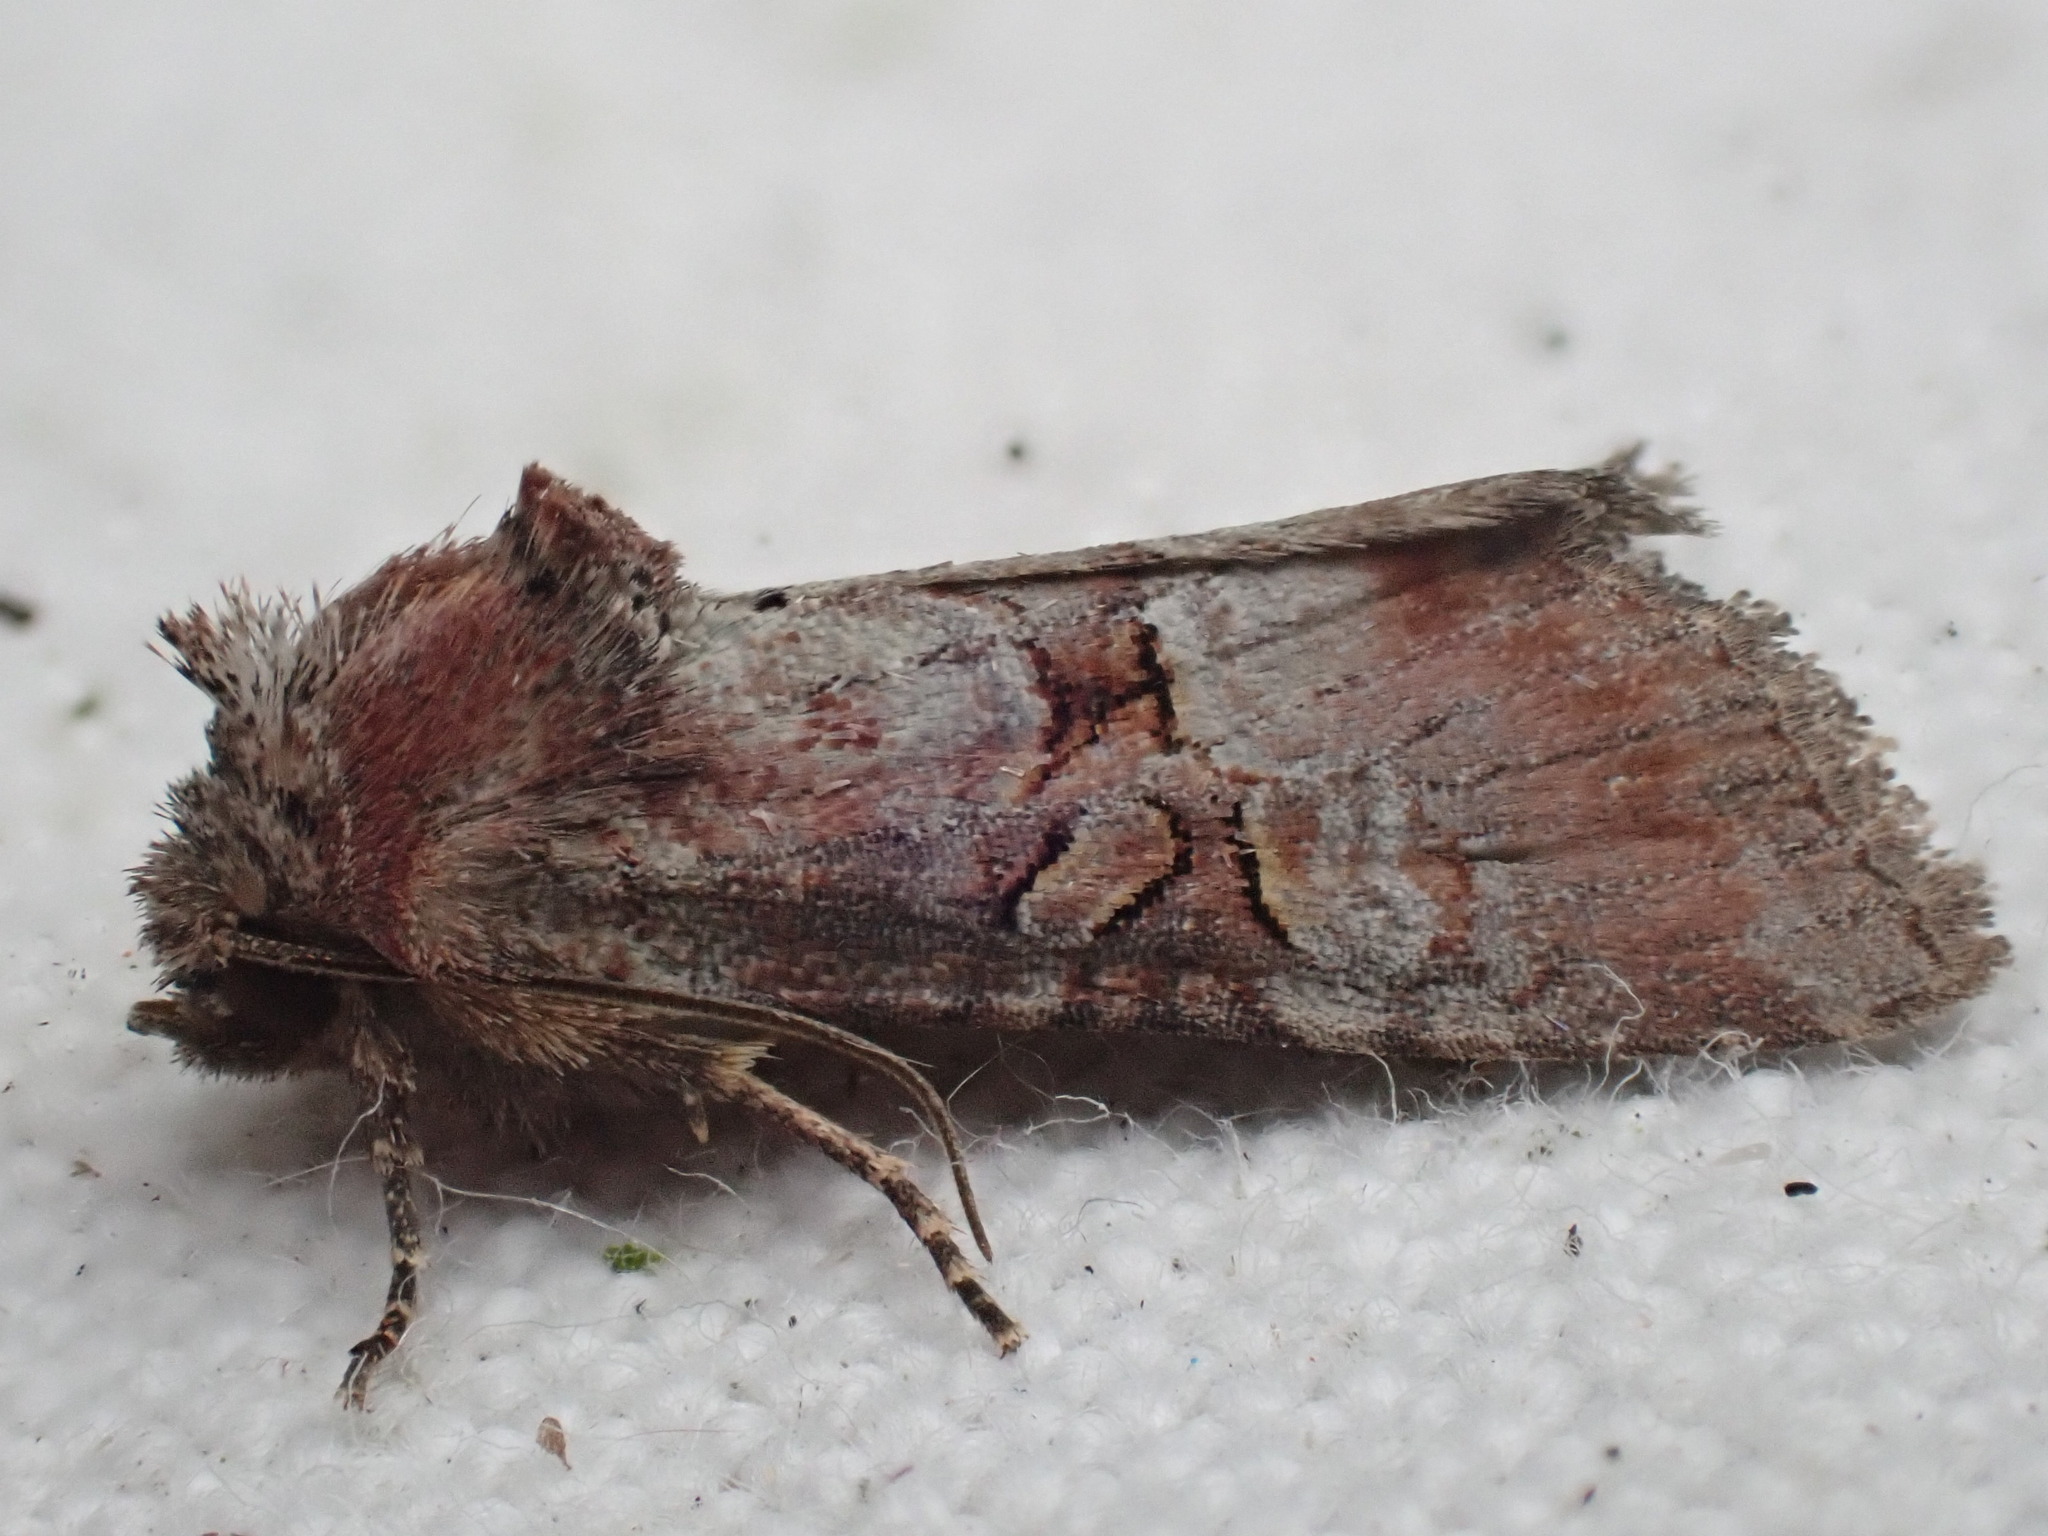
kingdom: Animalia
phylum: Arthropoda
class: Insecta
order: Lepidoptera
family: Noctuidae
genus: Litoligia
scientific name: Litoligia literosa
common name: Rosy minor
